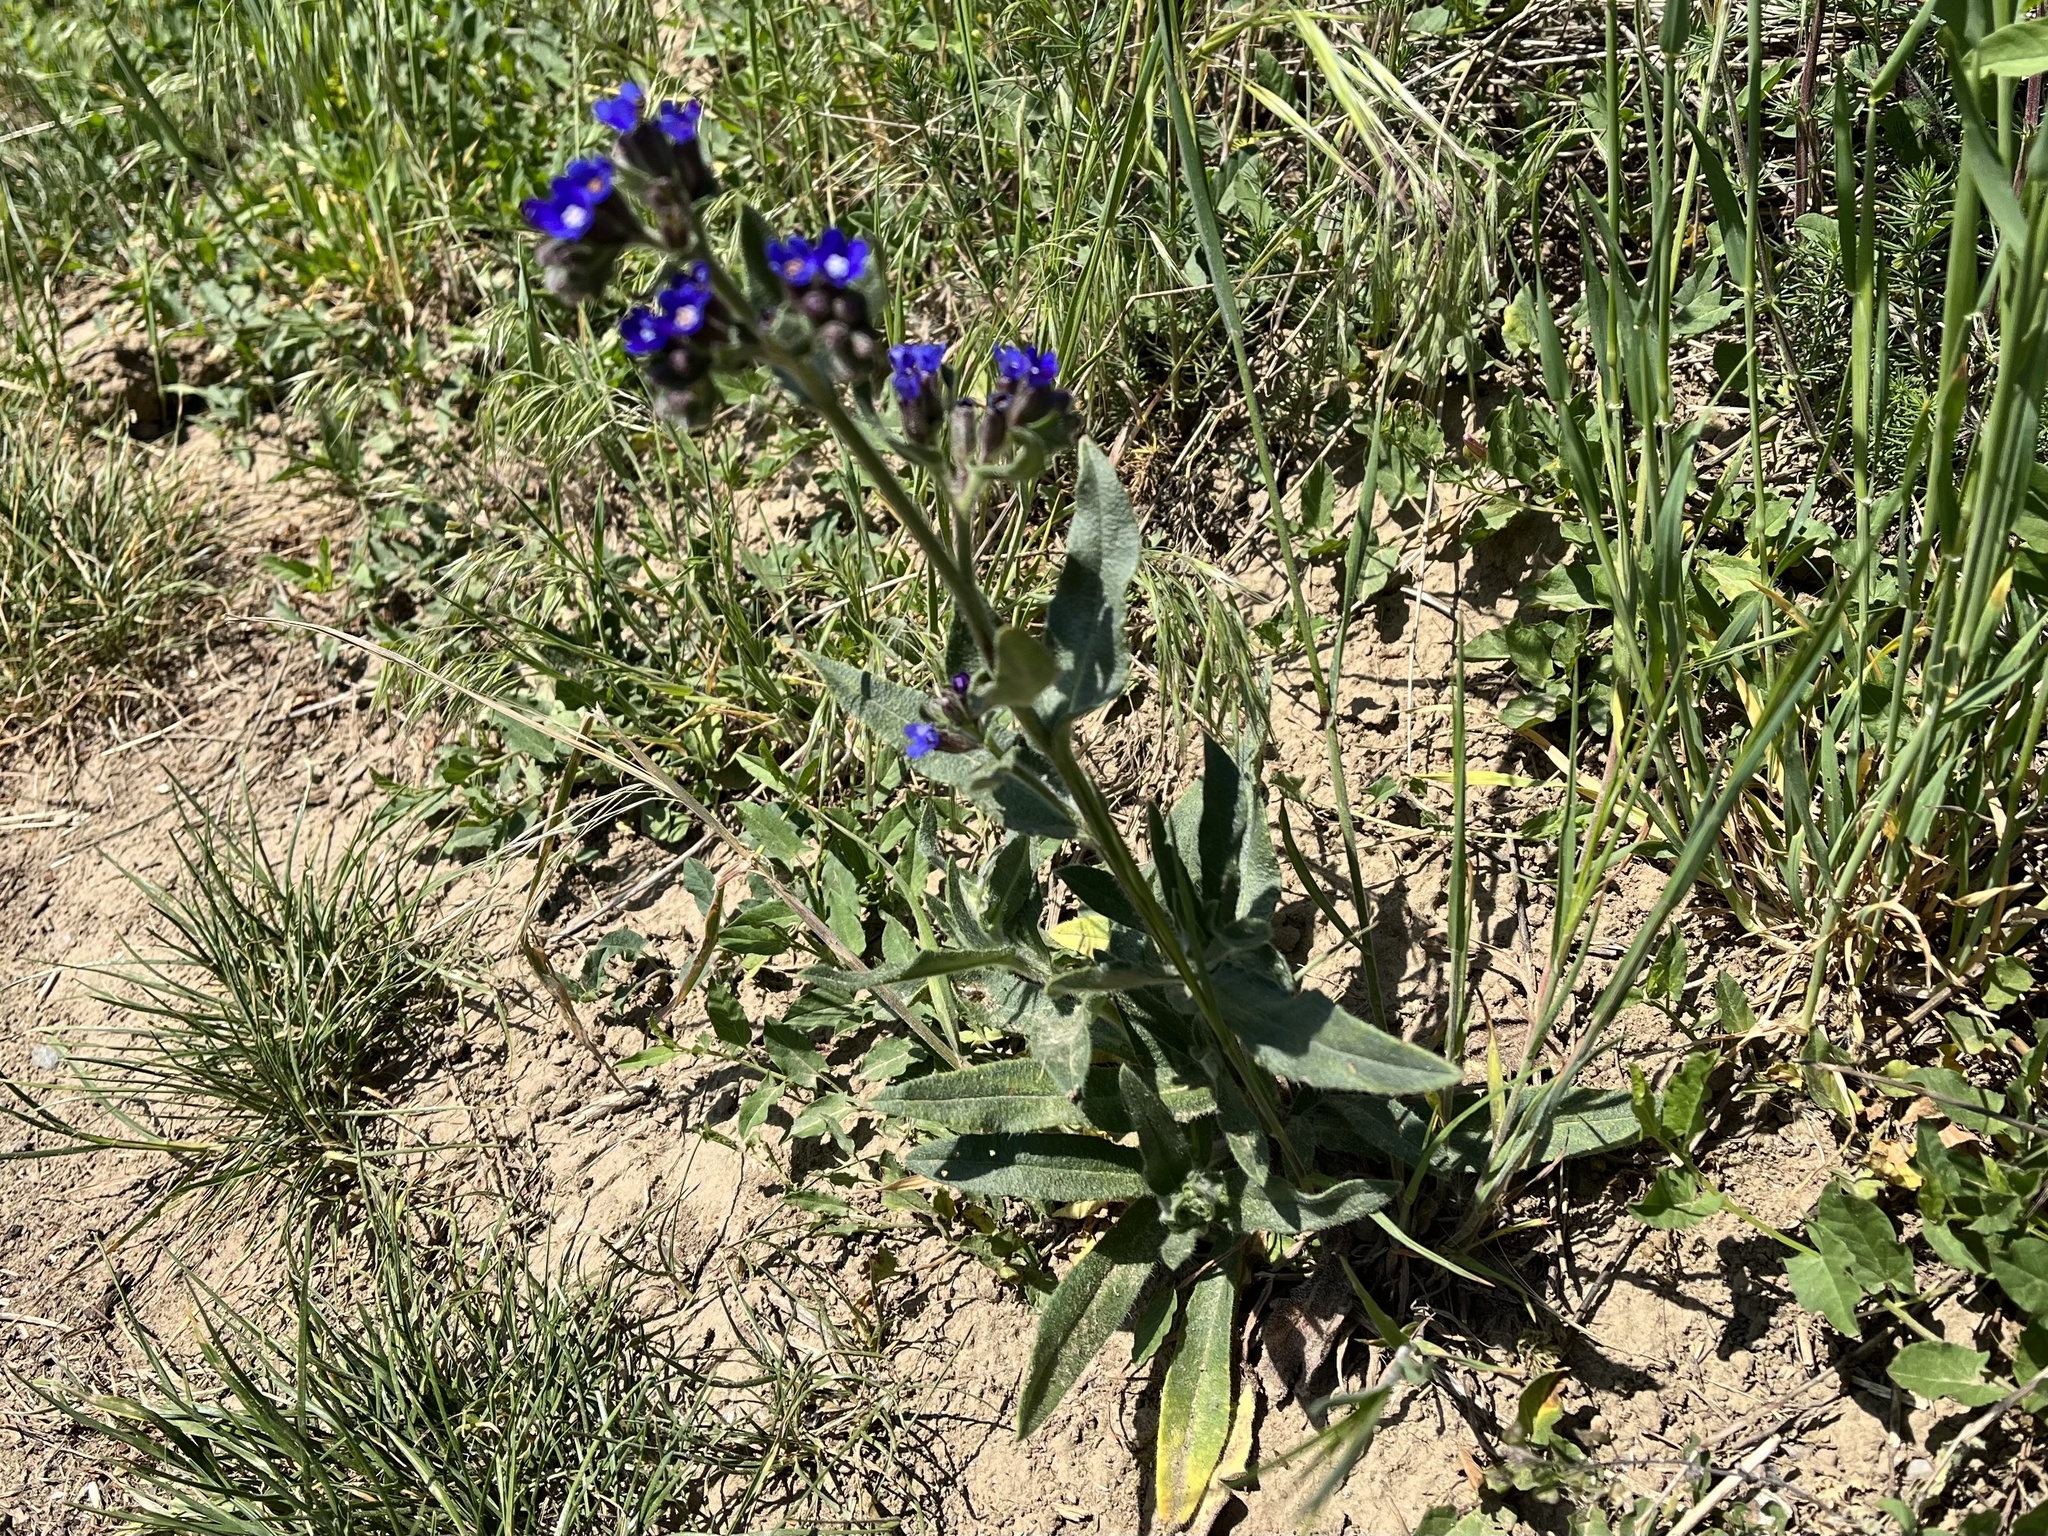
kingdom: Plantae
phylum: Tracheophyta
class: Magnoliopsida
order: Boraginales
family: Boraginaceae
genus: Anchusa
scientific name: Anchusa officinalis
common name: Alkanet
